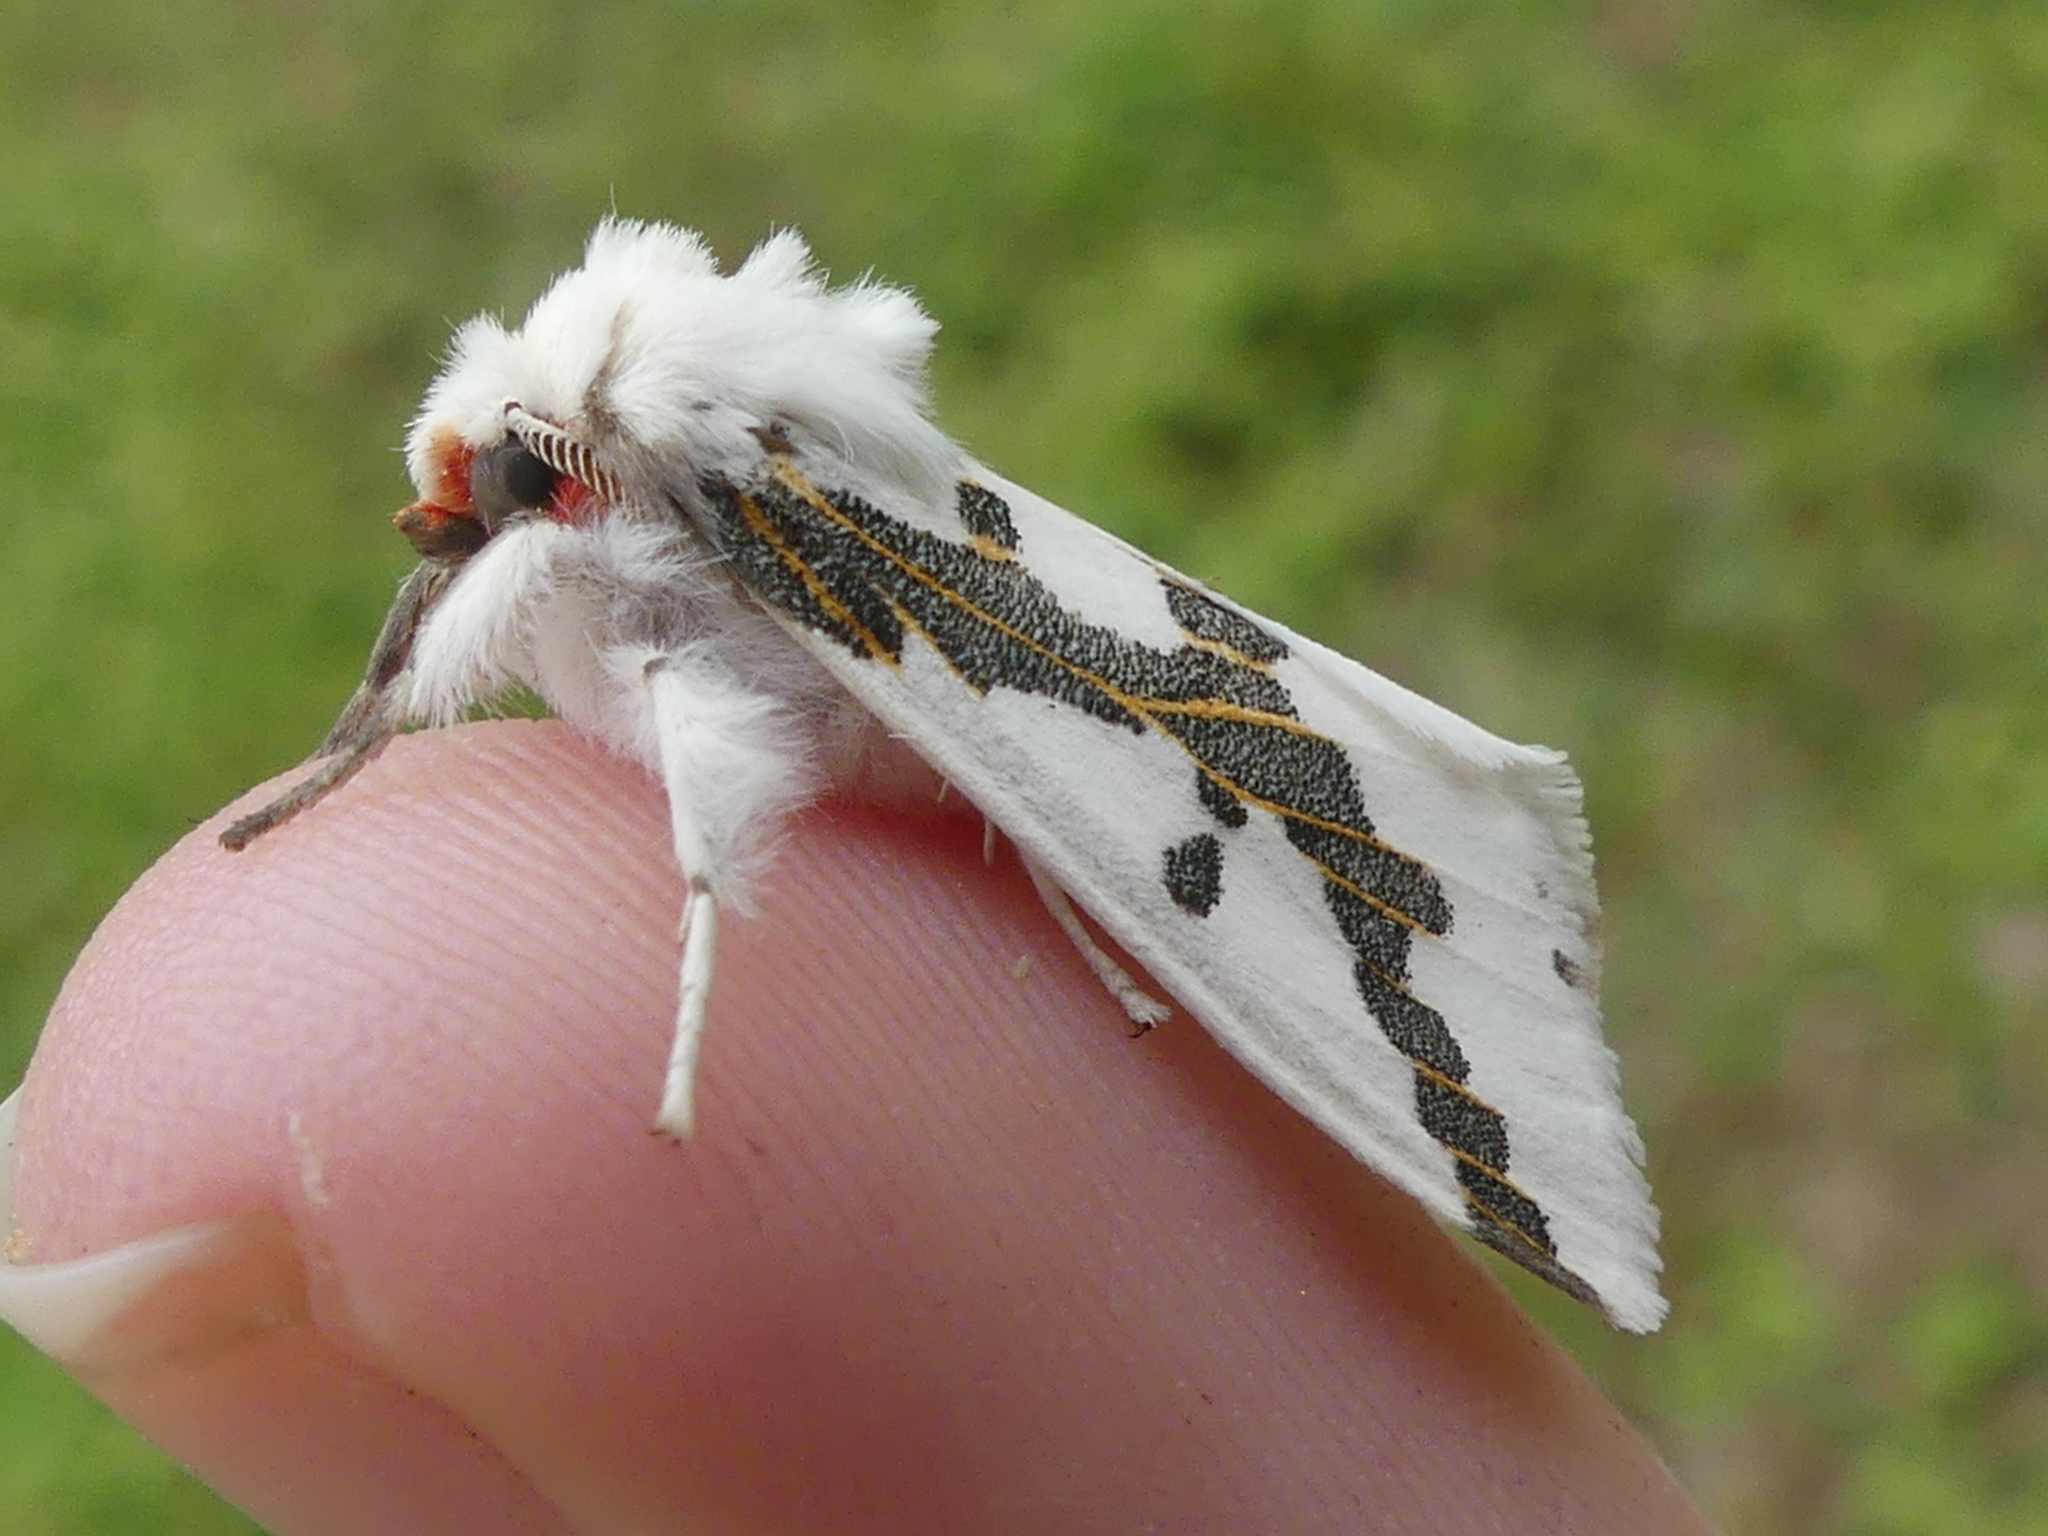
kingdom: Animalia
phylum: Arthropoda
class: Insecta
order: Lepidoptera
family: Erebidae
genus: Euerythra
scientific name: Euerythra phasma
